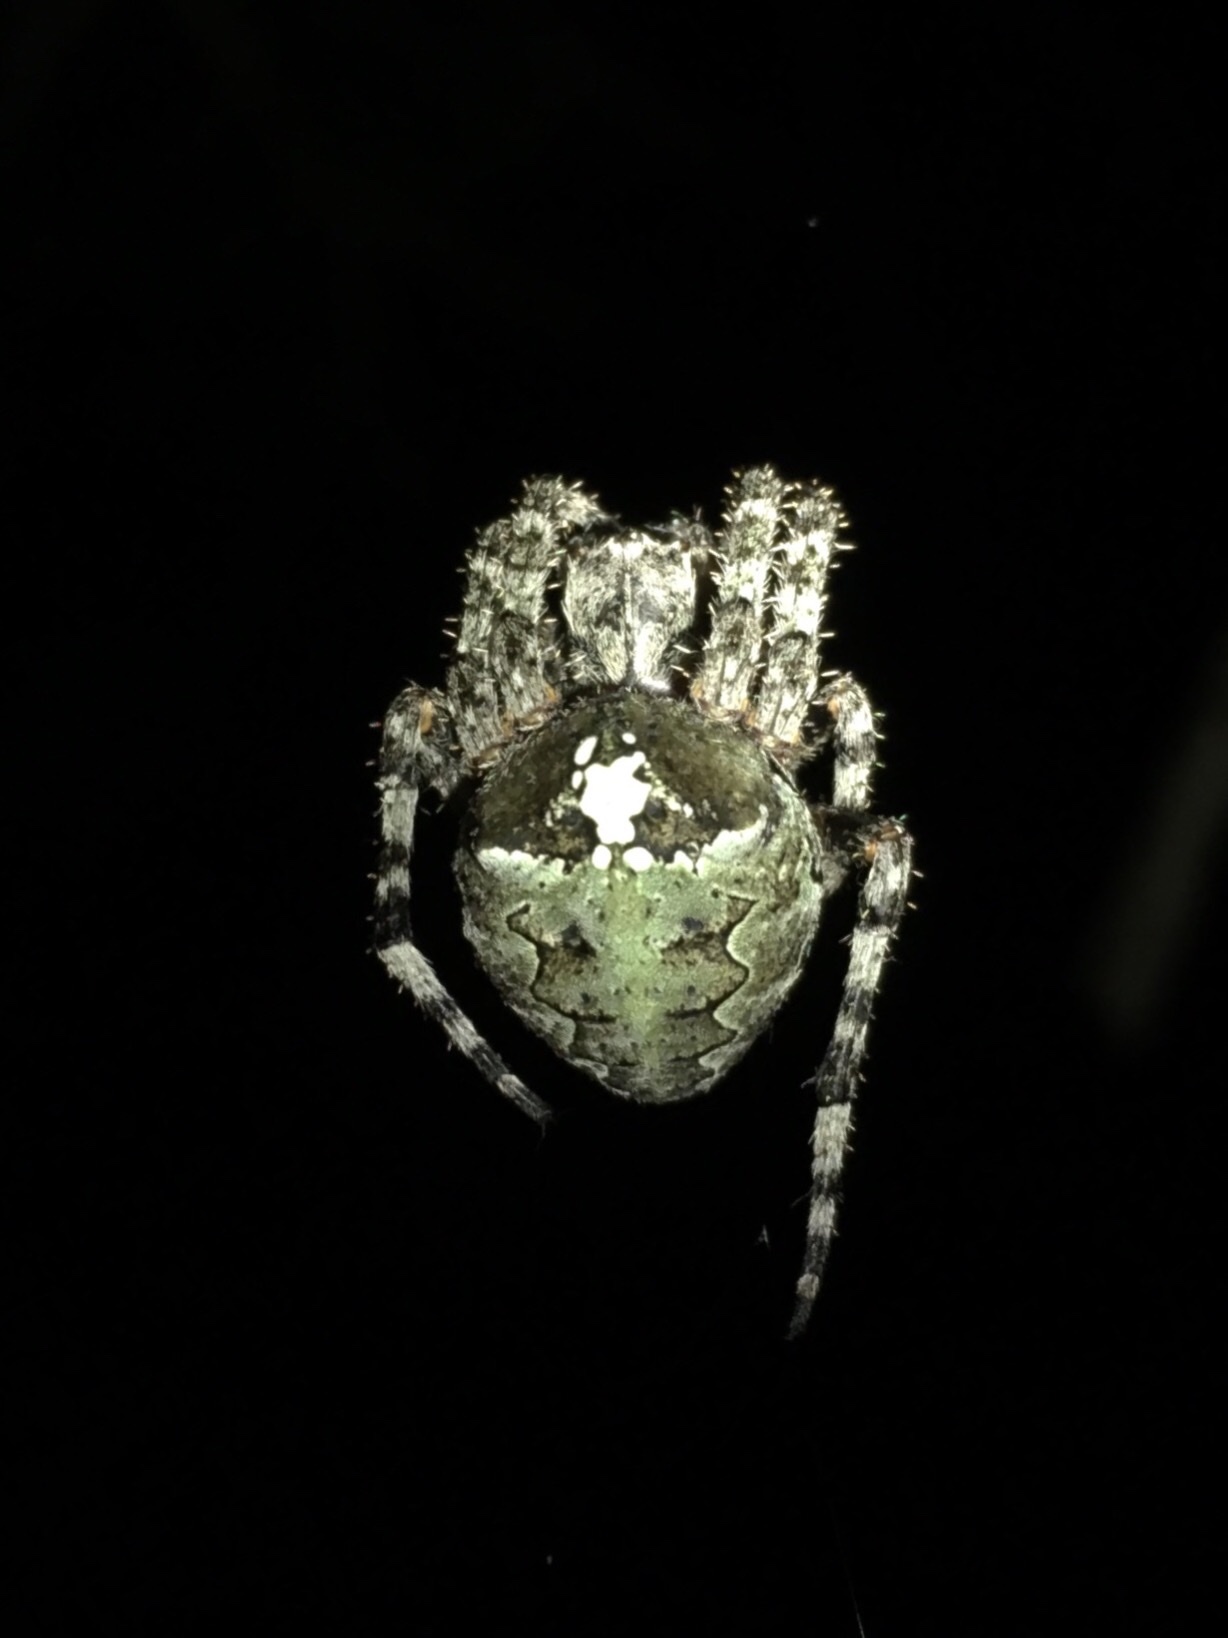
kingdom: Animalia
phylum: Arthropoda
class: Arachnida
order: Araneae
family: Araneidae
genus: Araneus
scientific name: Araneus bicentenarius
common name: Giant lichen orbweaver
